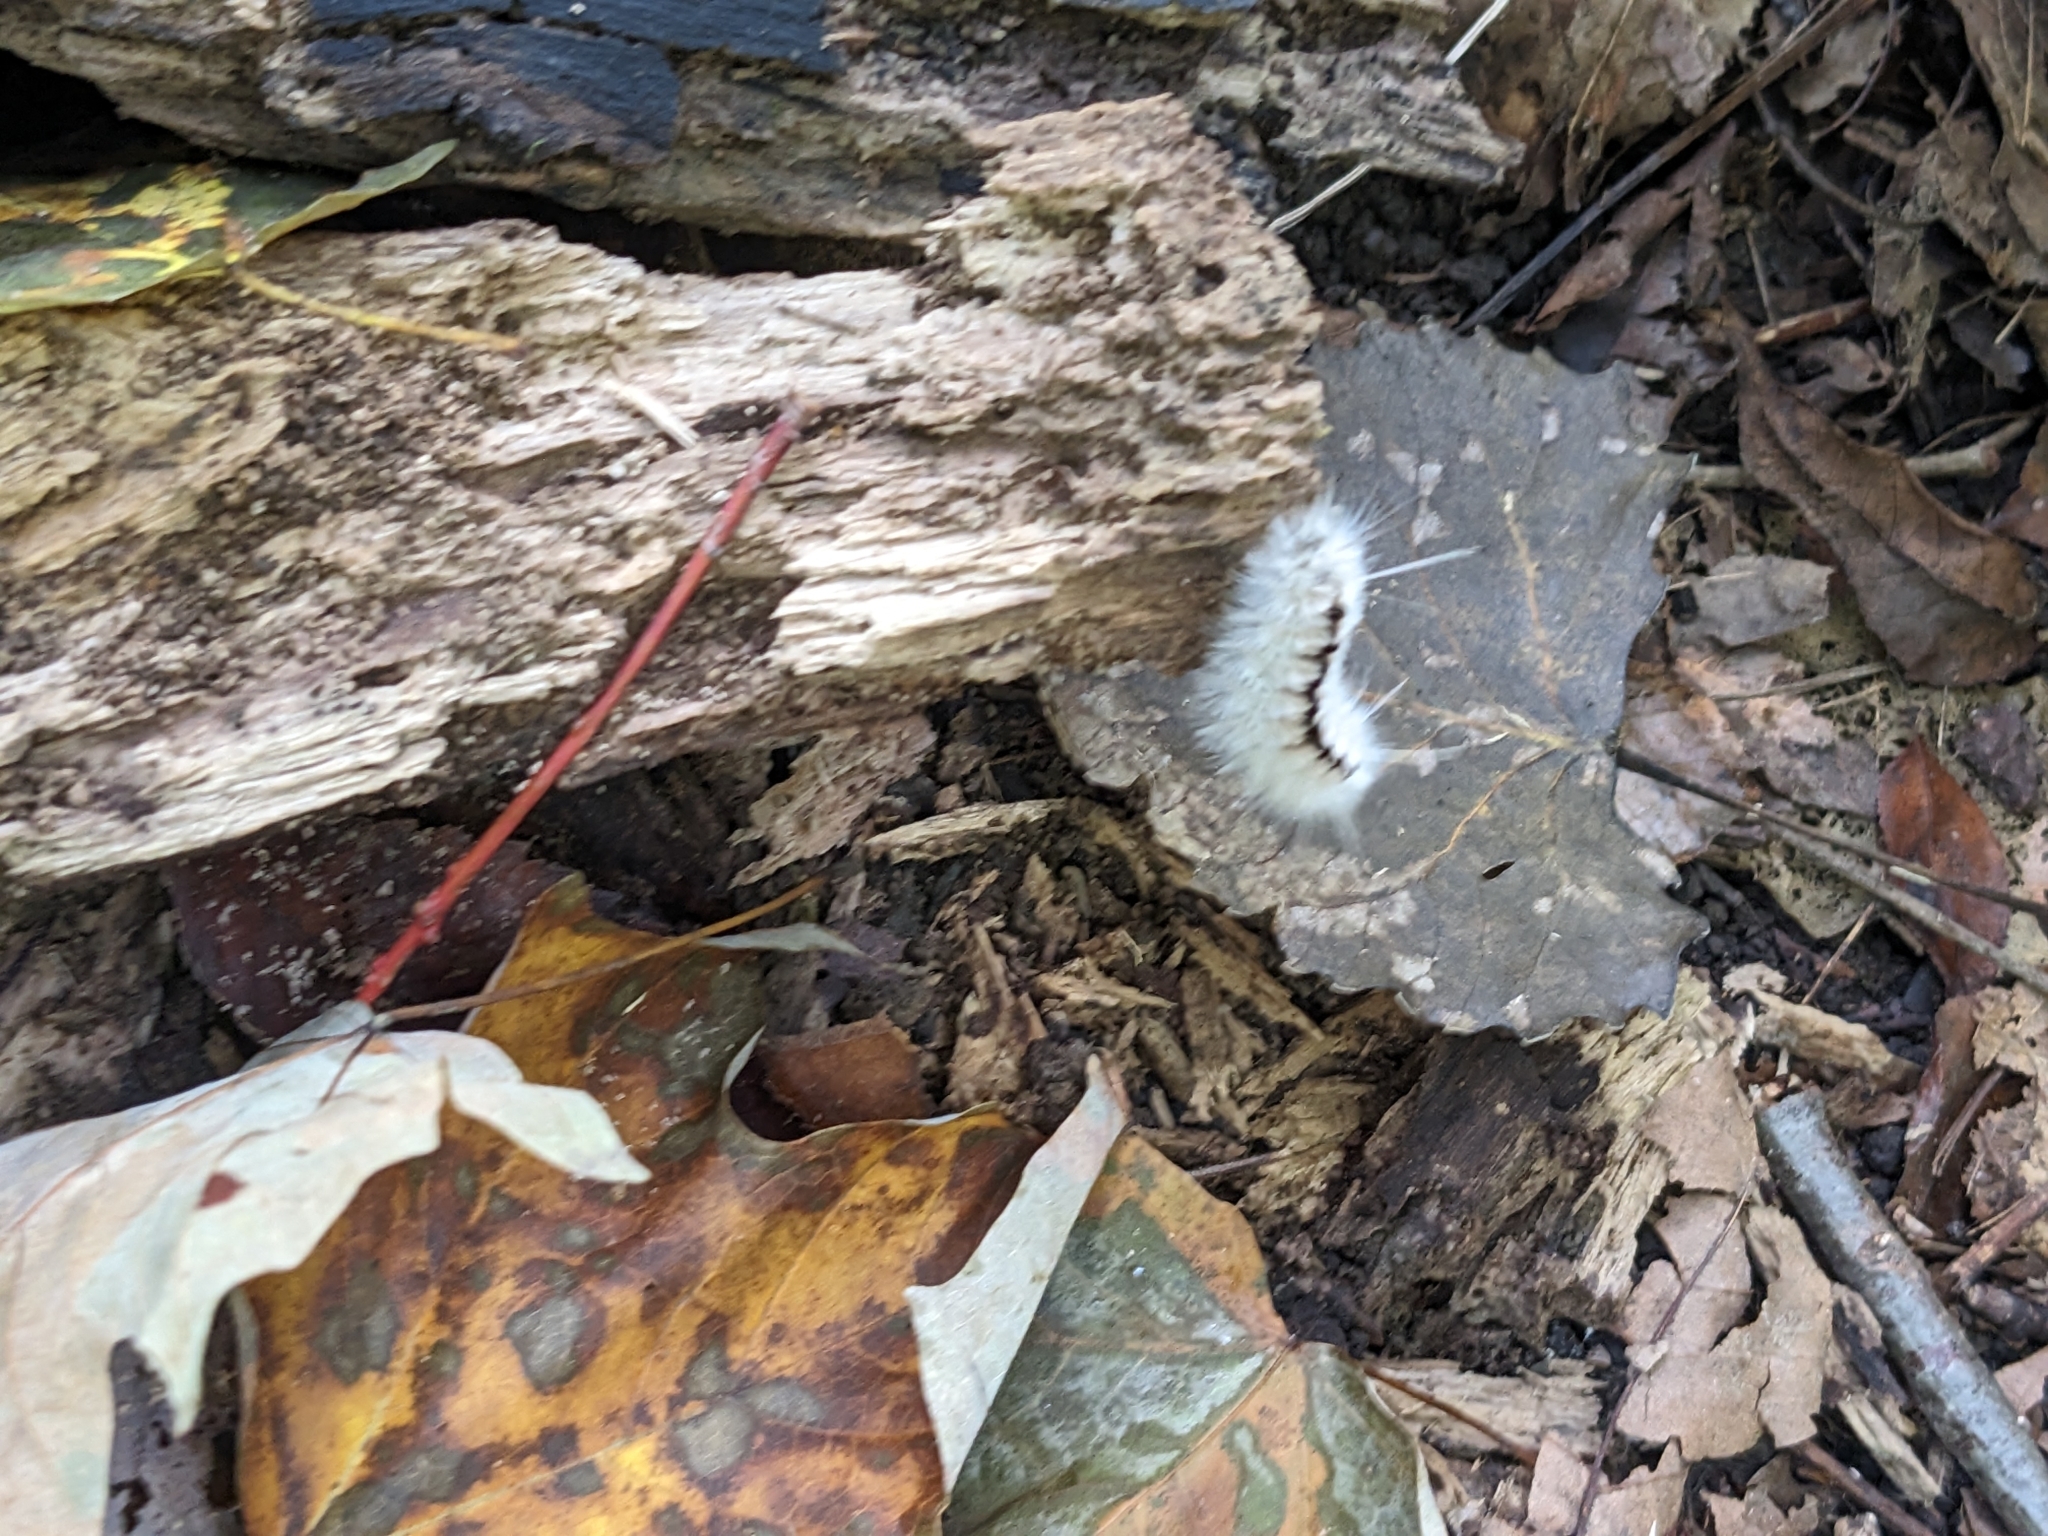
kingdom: Animalia
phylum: Arthropoda
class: Insecta
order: Lepidoptera
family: Erebidae
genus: Lophocampa
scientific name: Lophocampa caryae
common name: Hickory tussock moth
